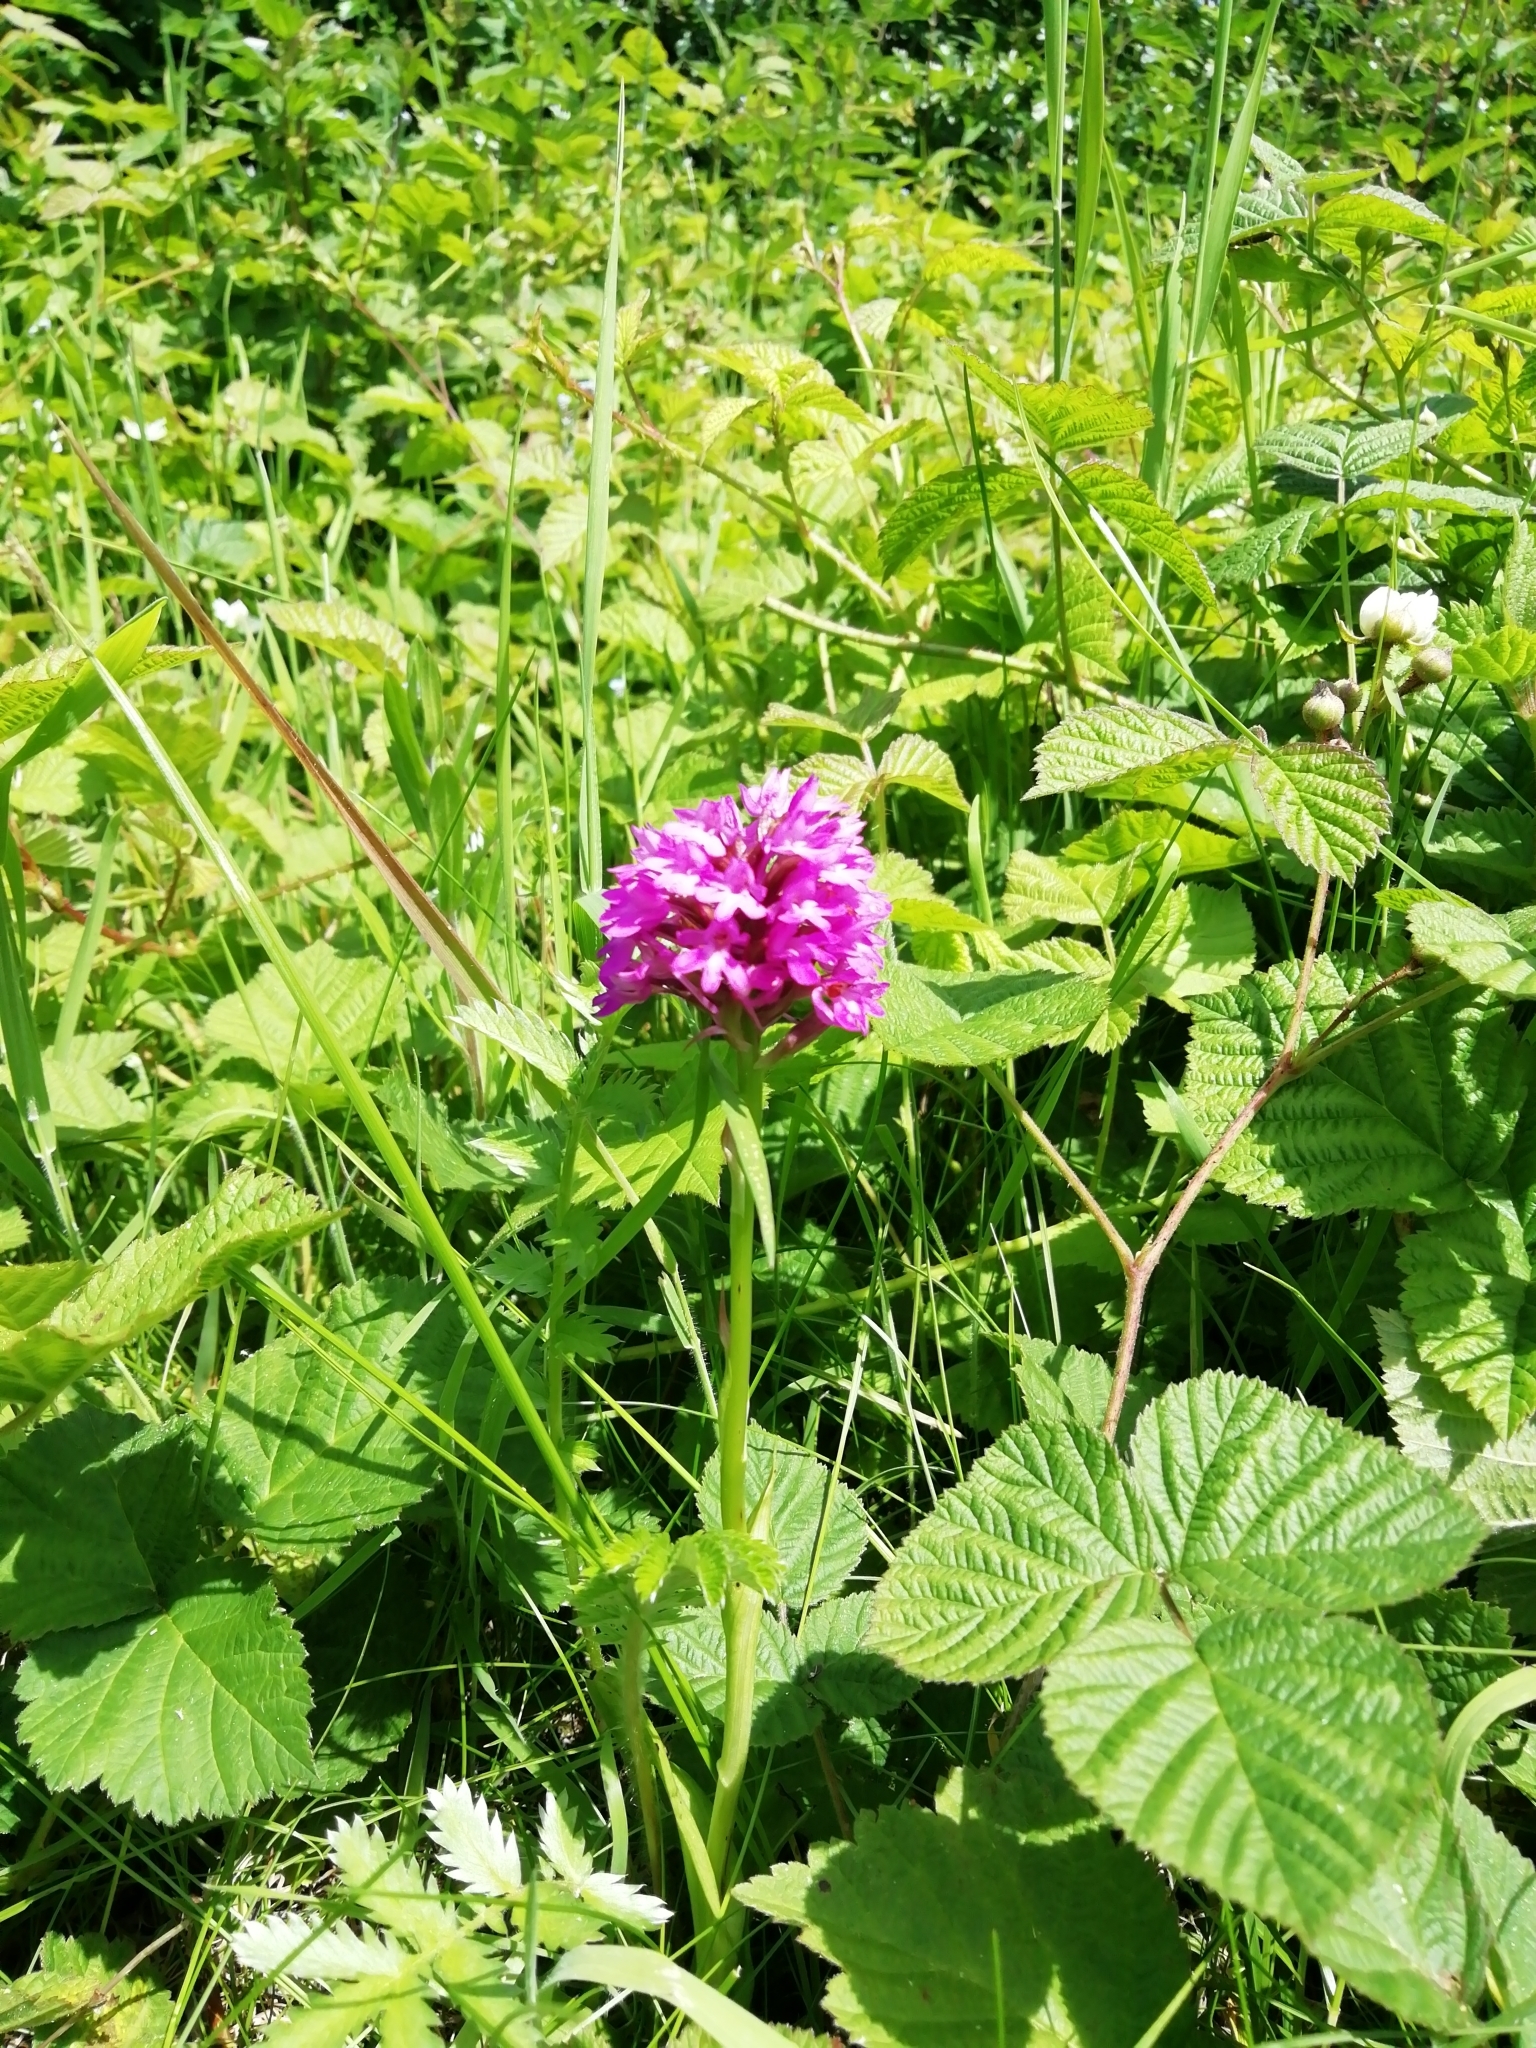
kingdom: Plantae
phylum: Tracheophyta
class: Liliopsida
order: Asparagales
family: Orchidaceae
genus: Anacamptis
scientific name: Anacamptis pyramidalis
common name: Pyramidal orchid
